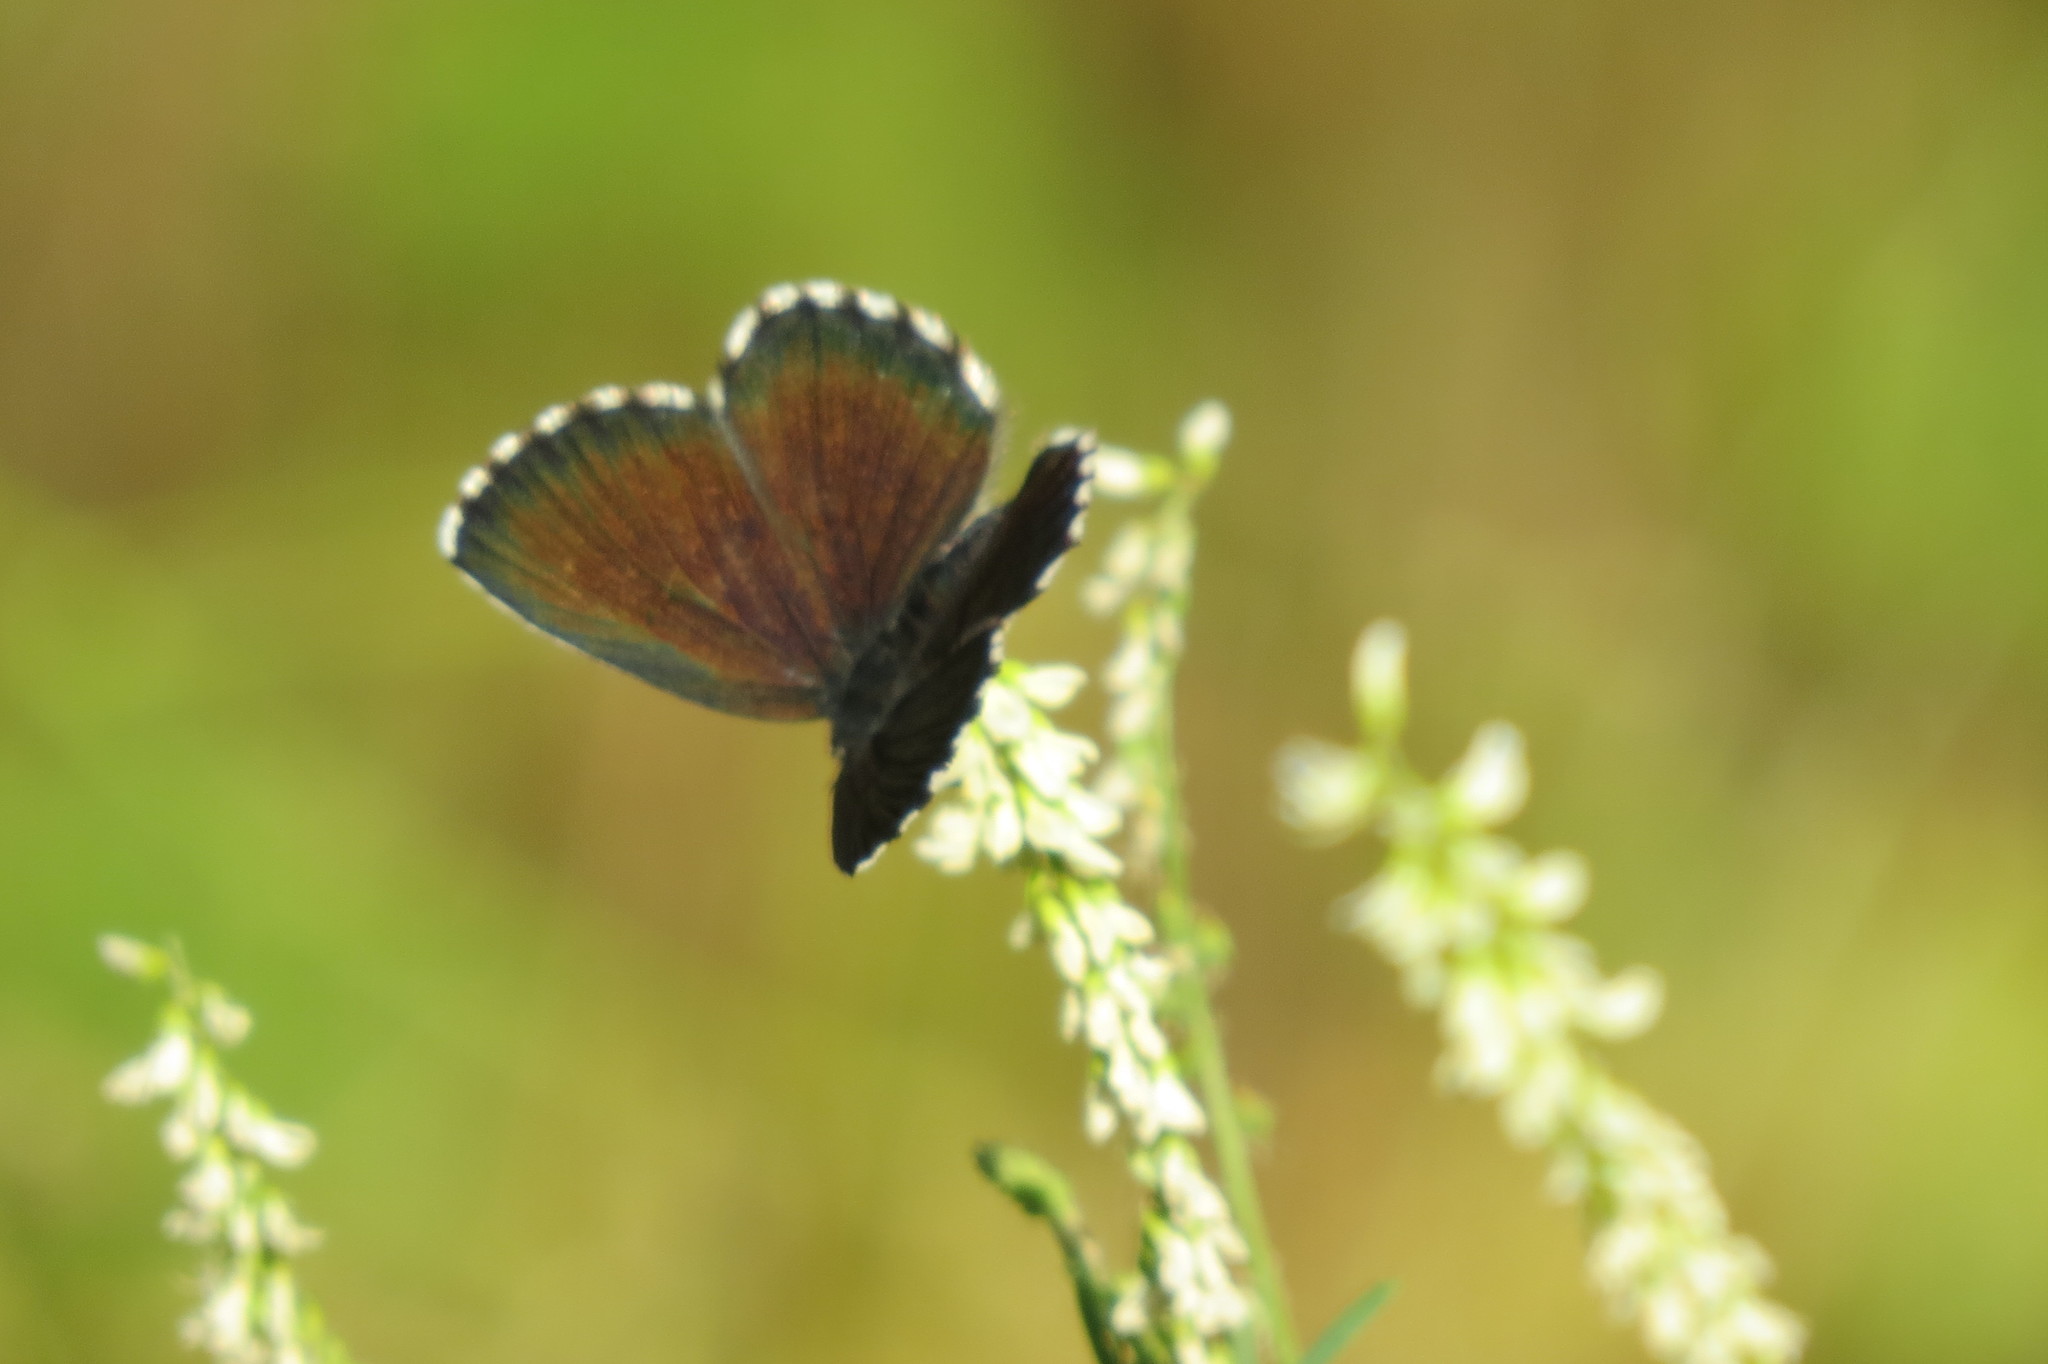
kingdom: Animalia
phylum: Arthropoda
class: Insecta
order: Lepidoptera
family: Lycaenidae
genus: Scolitantides
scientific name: Scolitantides orion
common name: Chequered blue
